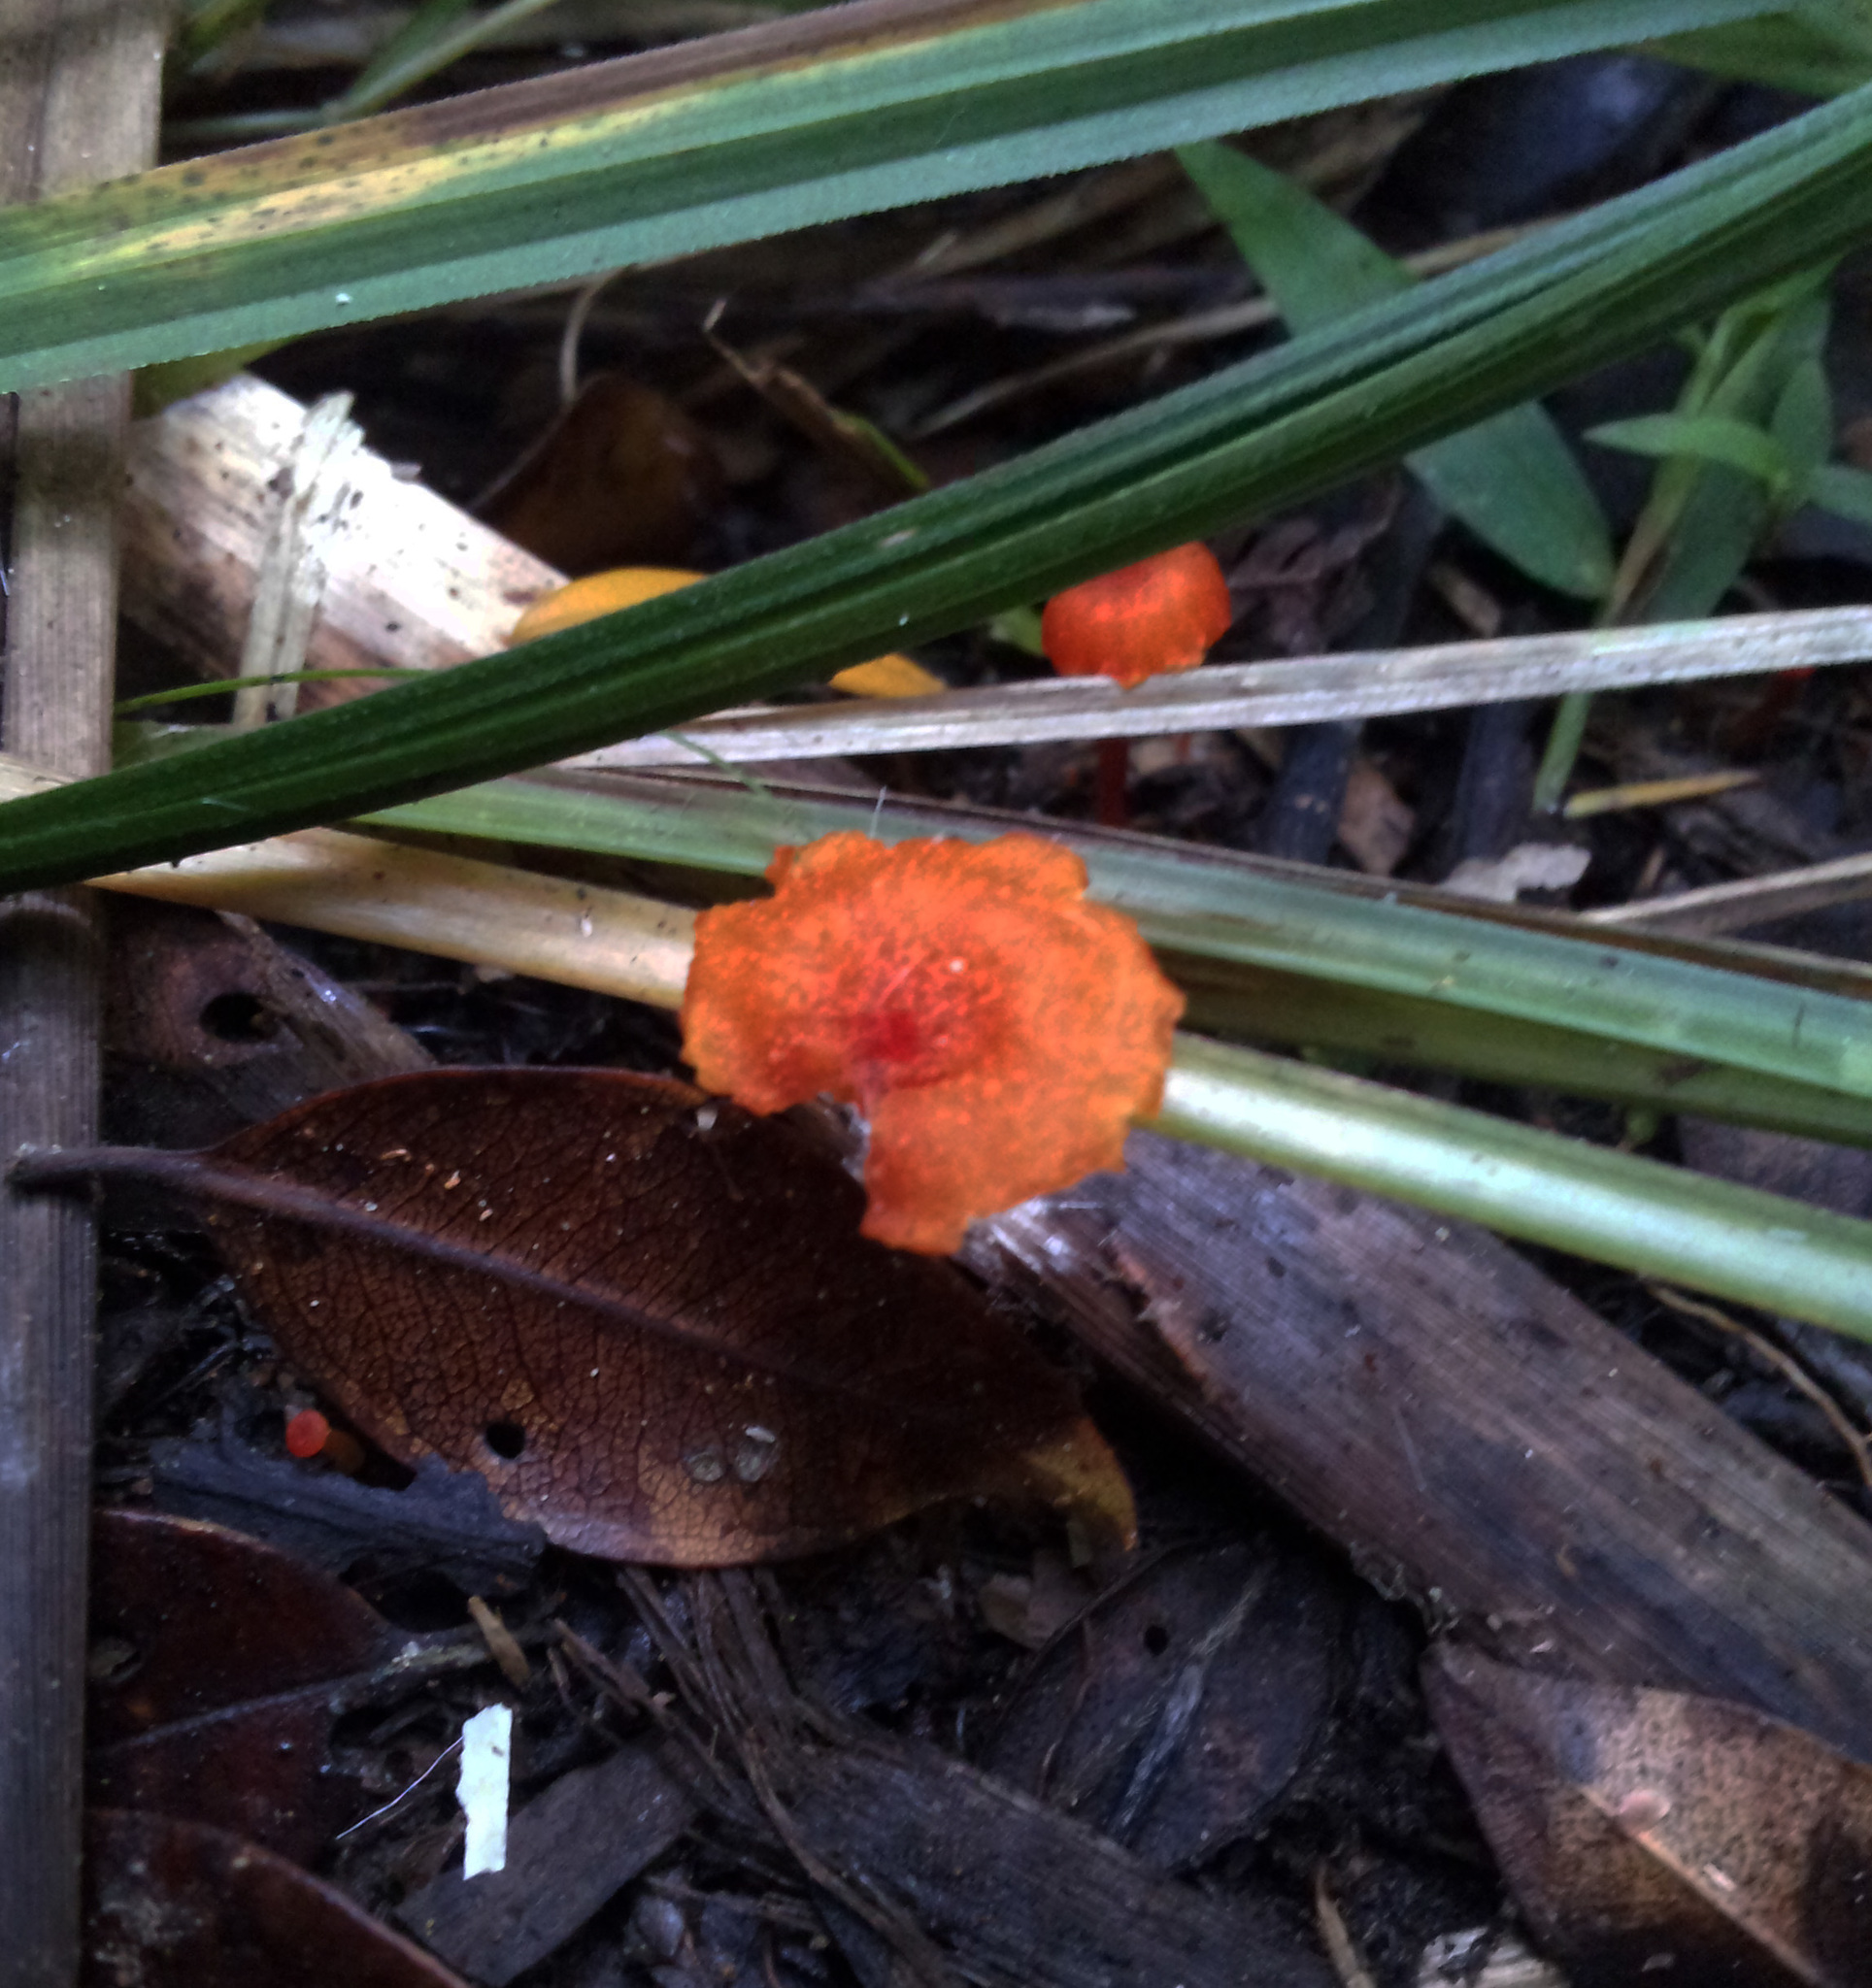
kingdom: Fungi
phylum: Basidiomycota
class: Agaricomycetes
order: Agaricales
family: Hygrophoraceae
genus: Hygrocybe
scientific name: Hygrocybe cantharellus
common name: Goblet waxcap
